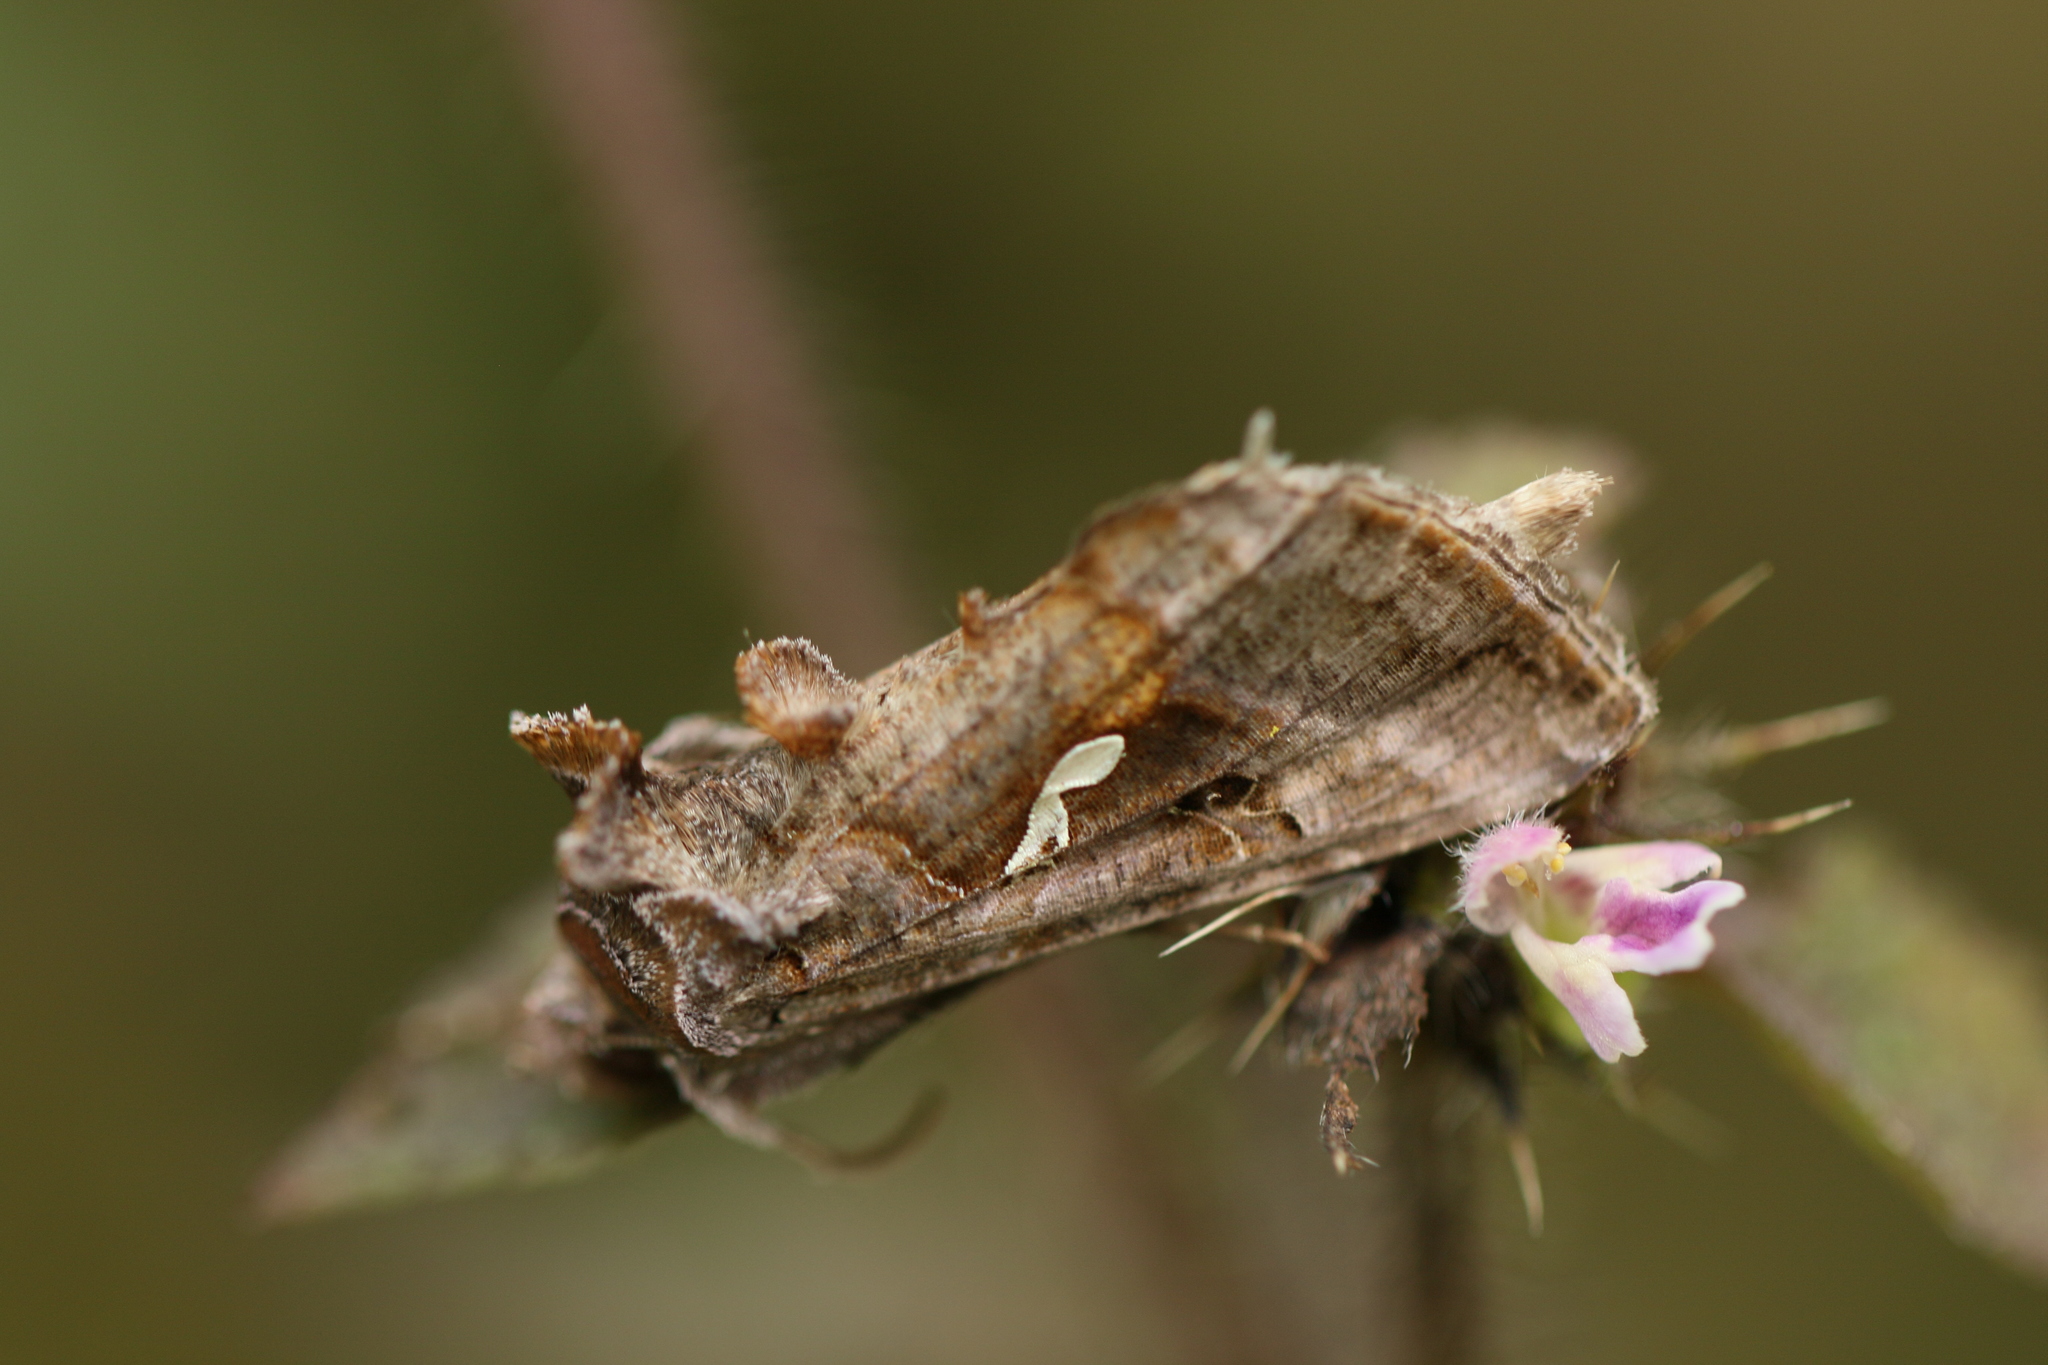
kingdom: Animalia
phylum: Arthropoda
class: Insecta
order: Lepidoptera
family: Noctuidae
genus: Autographa
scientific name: Autographa precationis
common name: Common looper moth
